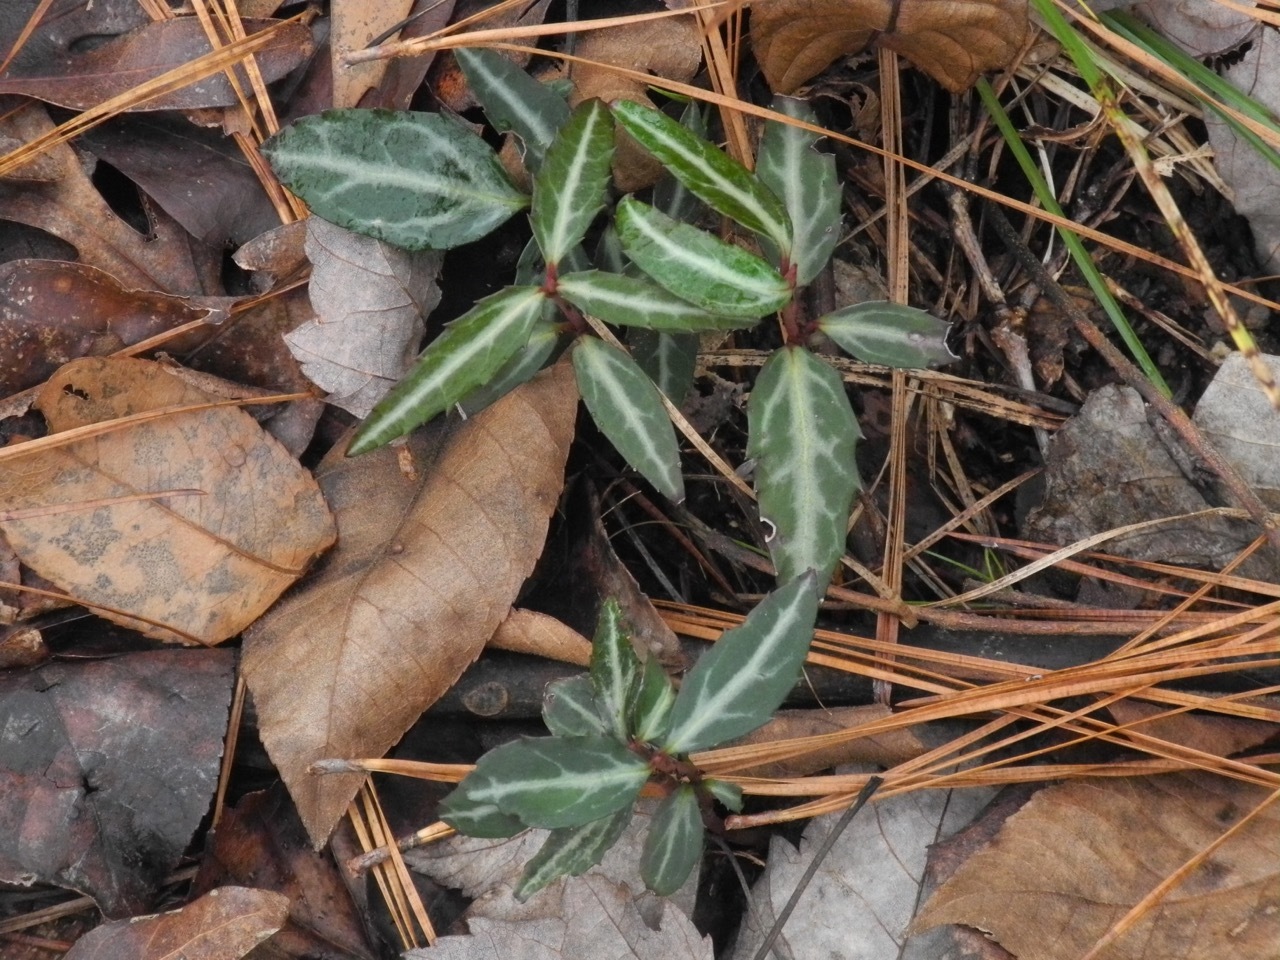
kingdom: Plantae
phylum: Tracheophyta
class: Magnoliopsida
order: Ericales
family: Ericaceae
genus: Chimaphila
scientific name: Chimaphila maculata
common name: Spotted pipsissewa
